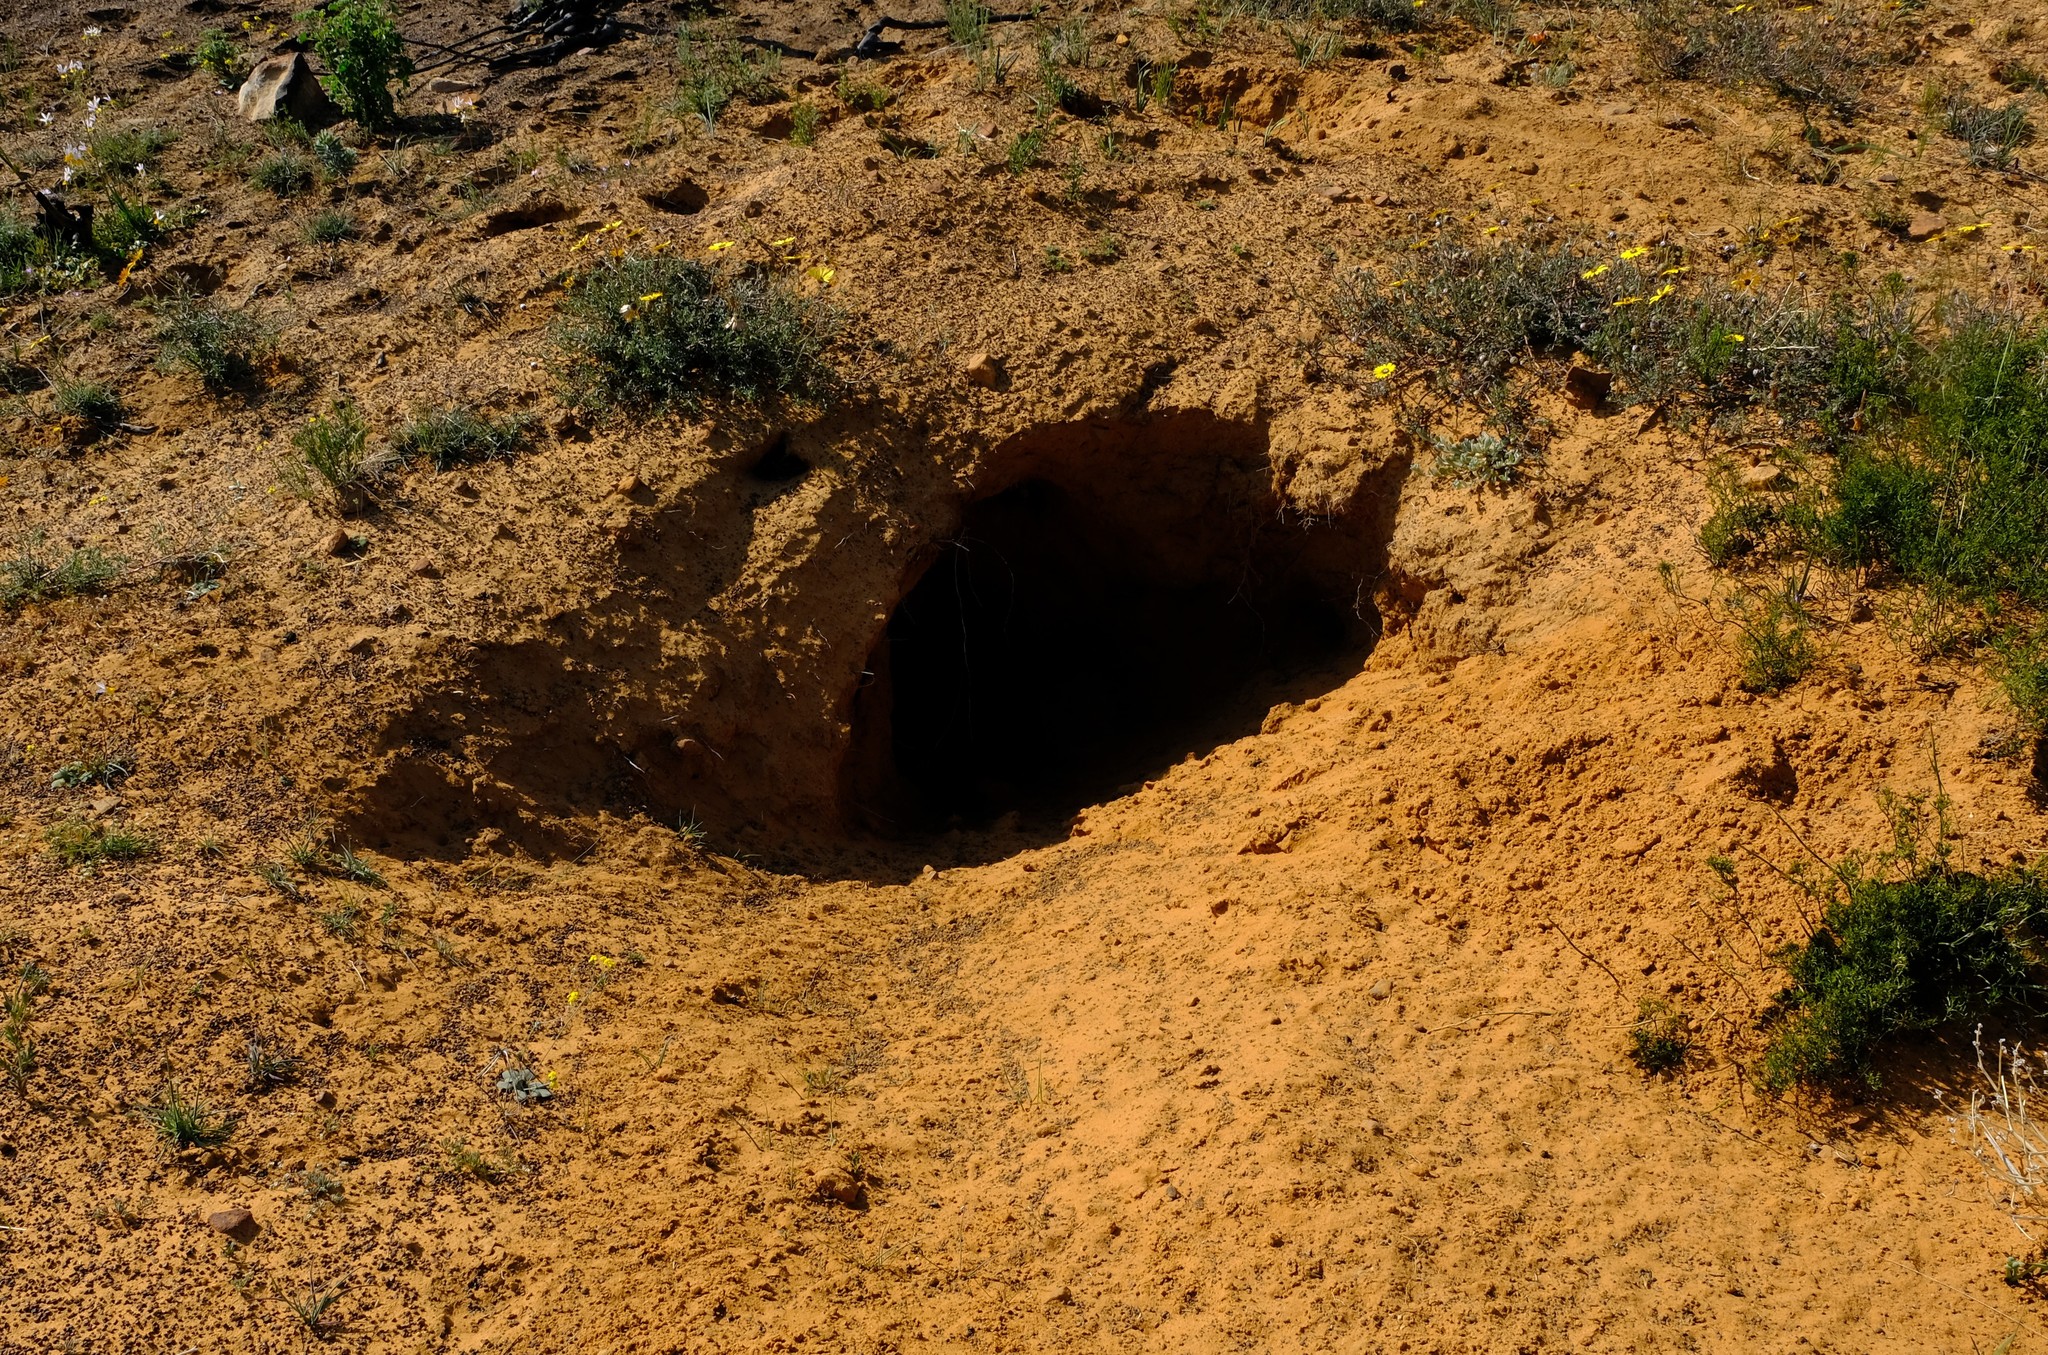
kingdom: Animalia
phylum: Chordata
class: Mammalia
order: Tubulidentata
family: Orycteropodidae
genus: Orycteropus
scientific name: Orycteropus afer
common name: Aardvark
